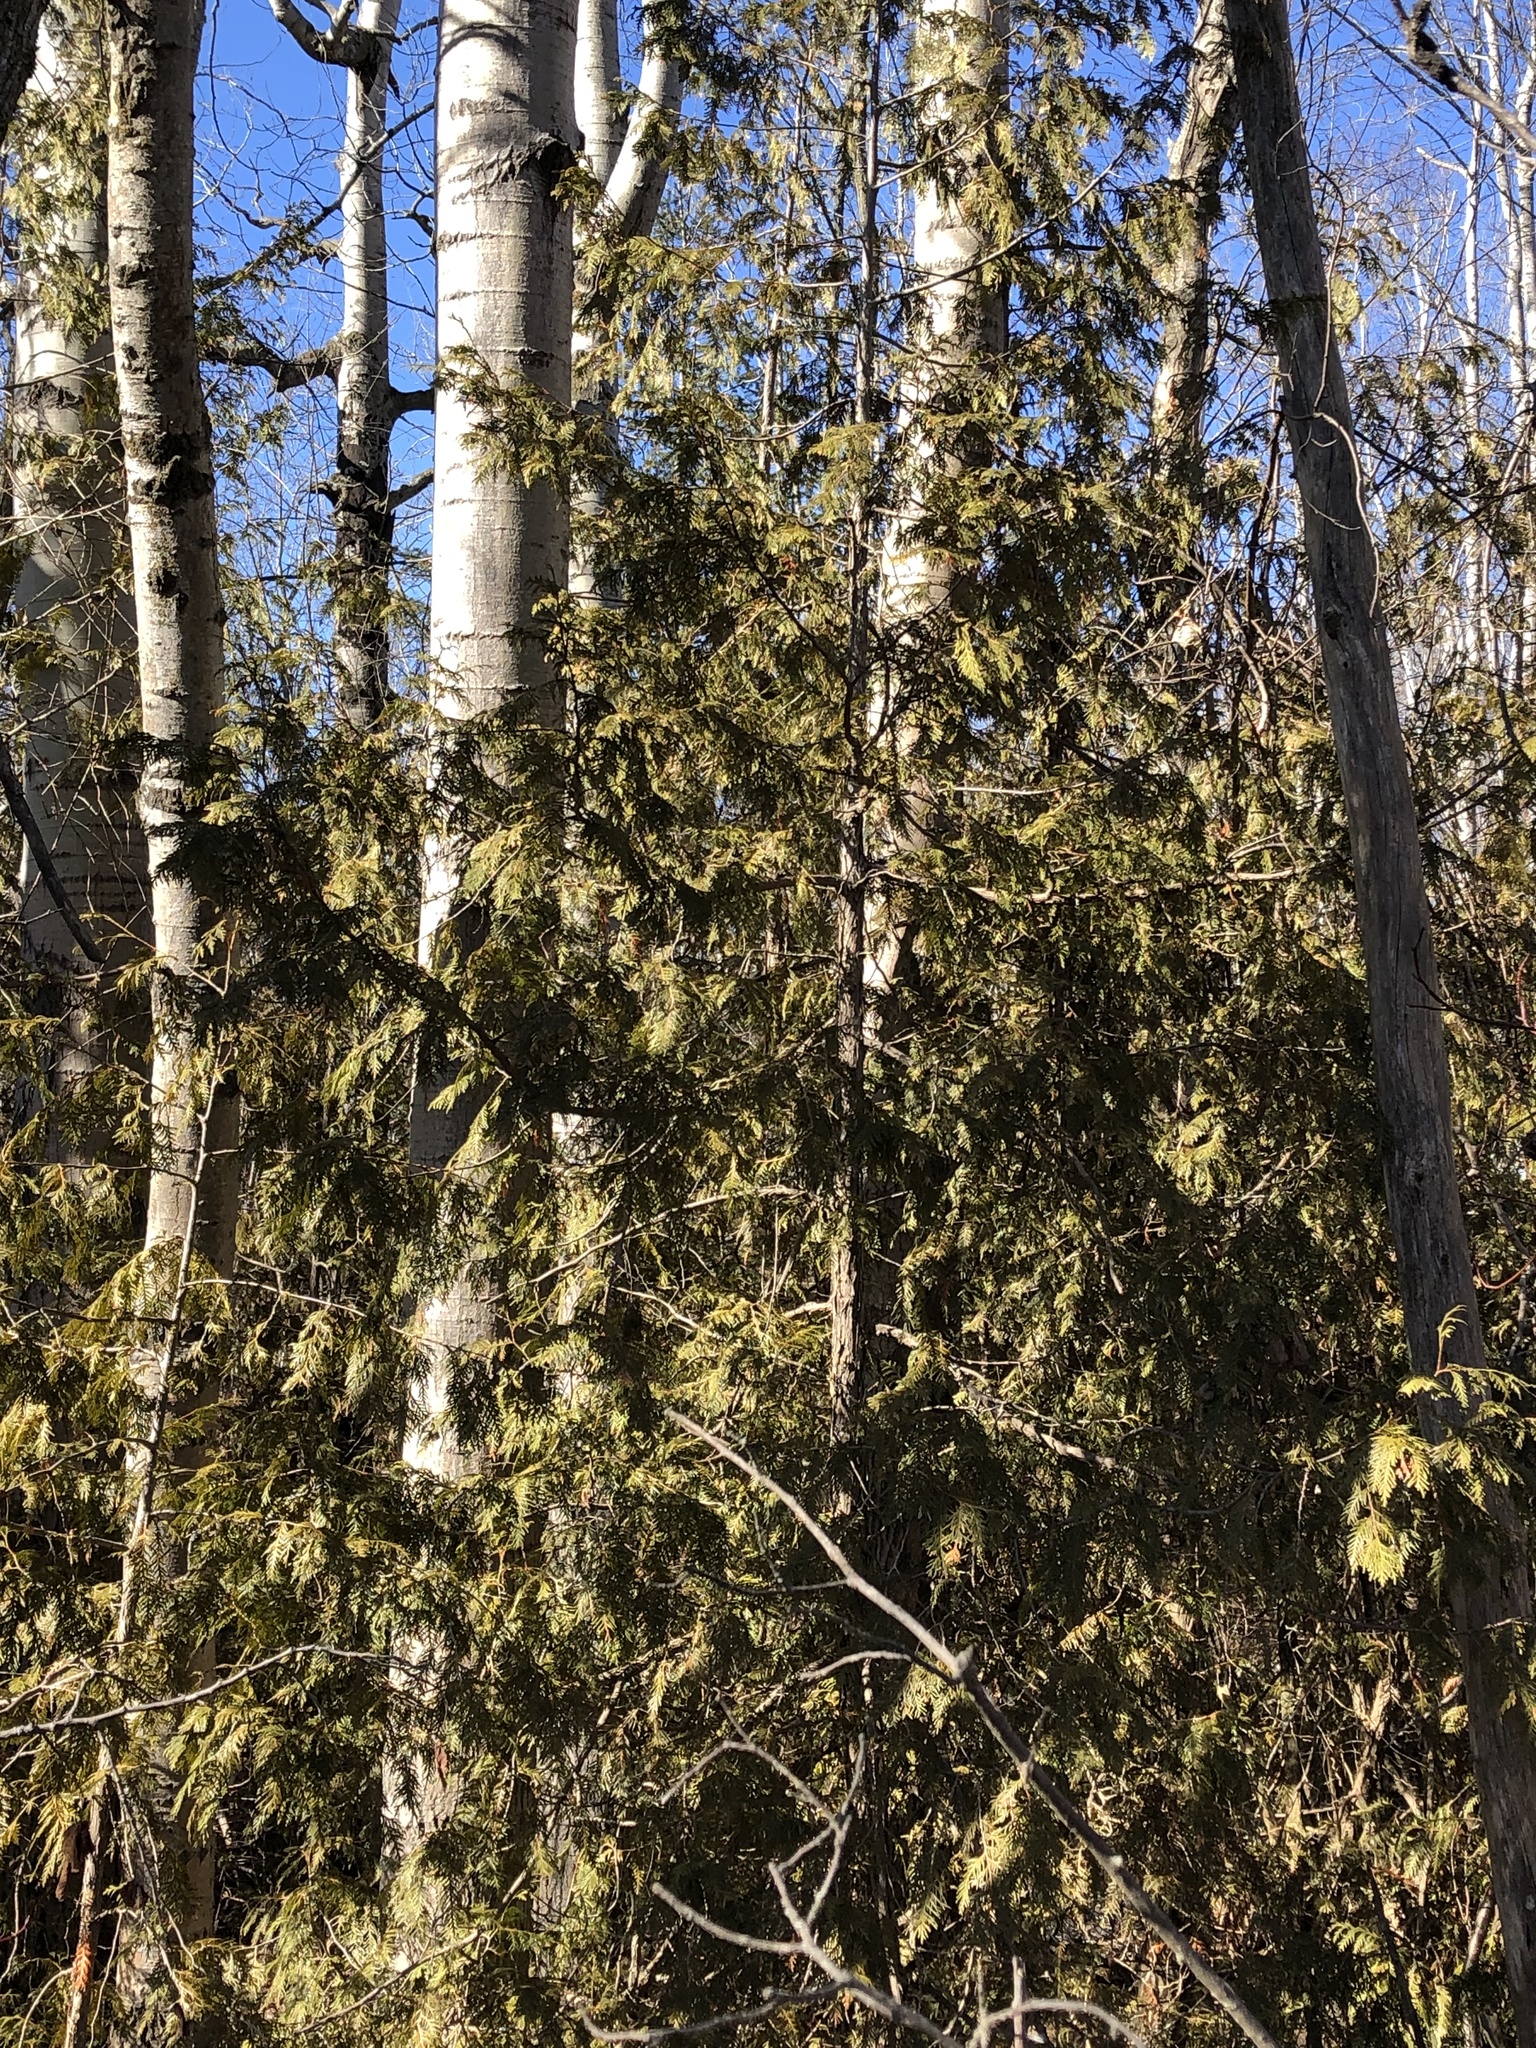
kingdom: Plantae
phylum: Tracheophyta
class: Pinopsida
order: Pinales
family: Cupressaceae
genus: Thuja
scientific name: Thuja occidentalis
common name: Northern white-cedar
